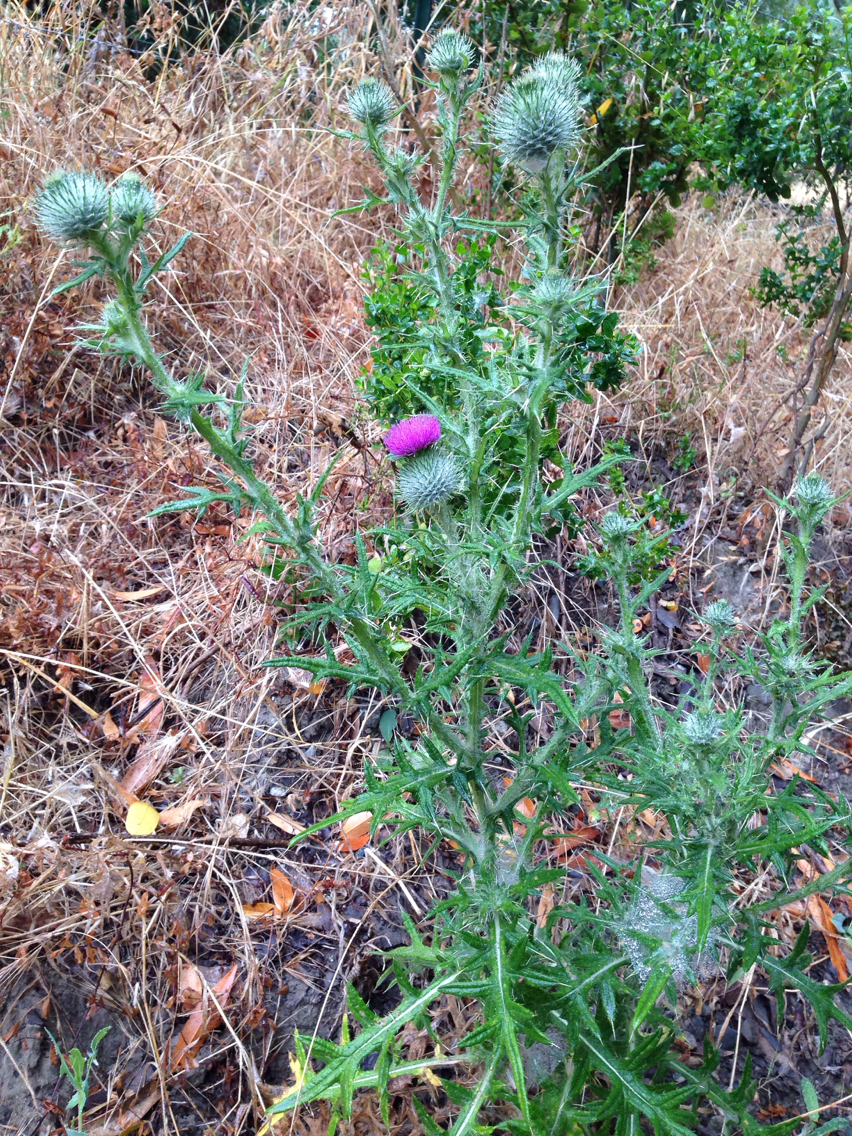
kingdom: Plantae
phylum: Tracheophyta
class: Magnoliopsida
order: Asterales
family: Asteraceae
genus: Cirsium
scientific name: Cirsium vulgare
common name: Bull thistle
